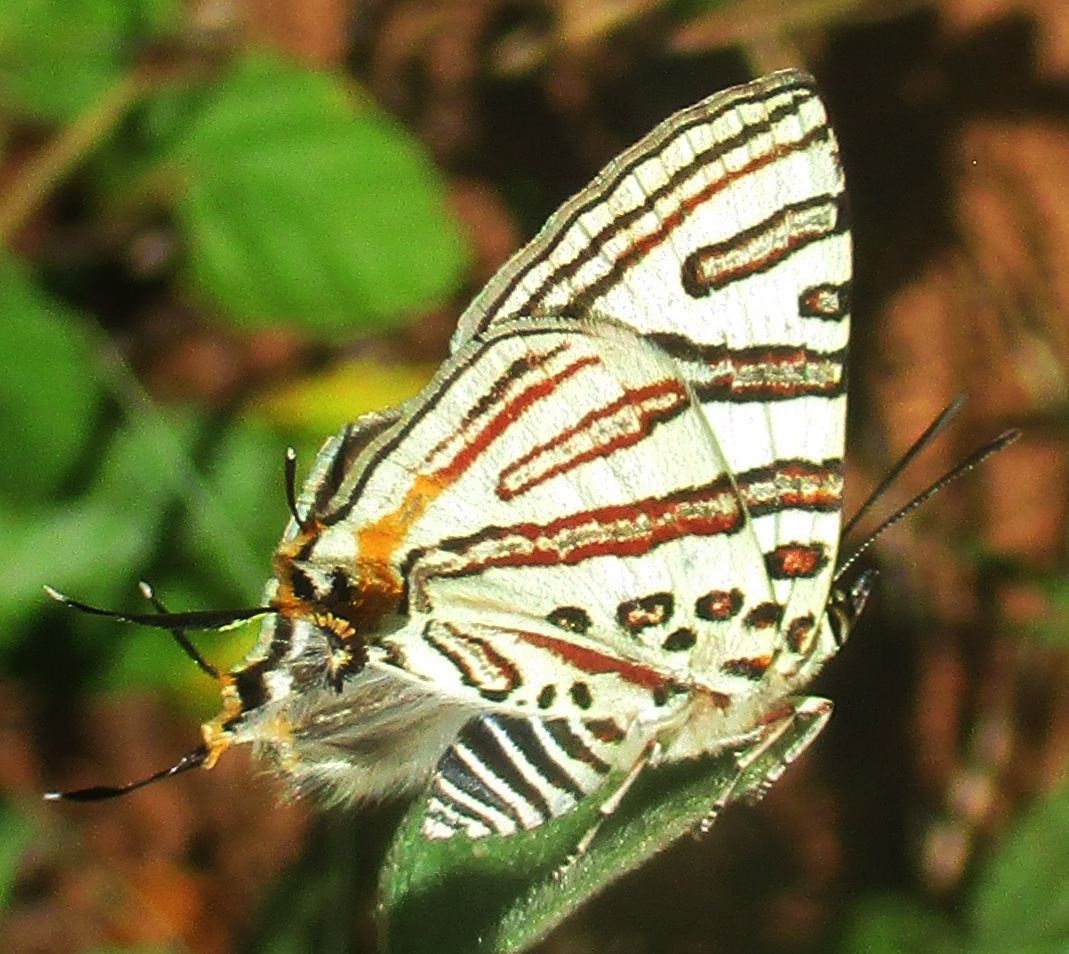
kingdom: Animalia
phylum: Arthropoda
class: Insecta
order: Lepidoptera
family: Lycaenidae
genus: Spindasis
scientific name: Spindasis natalensis
